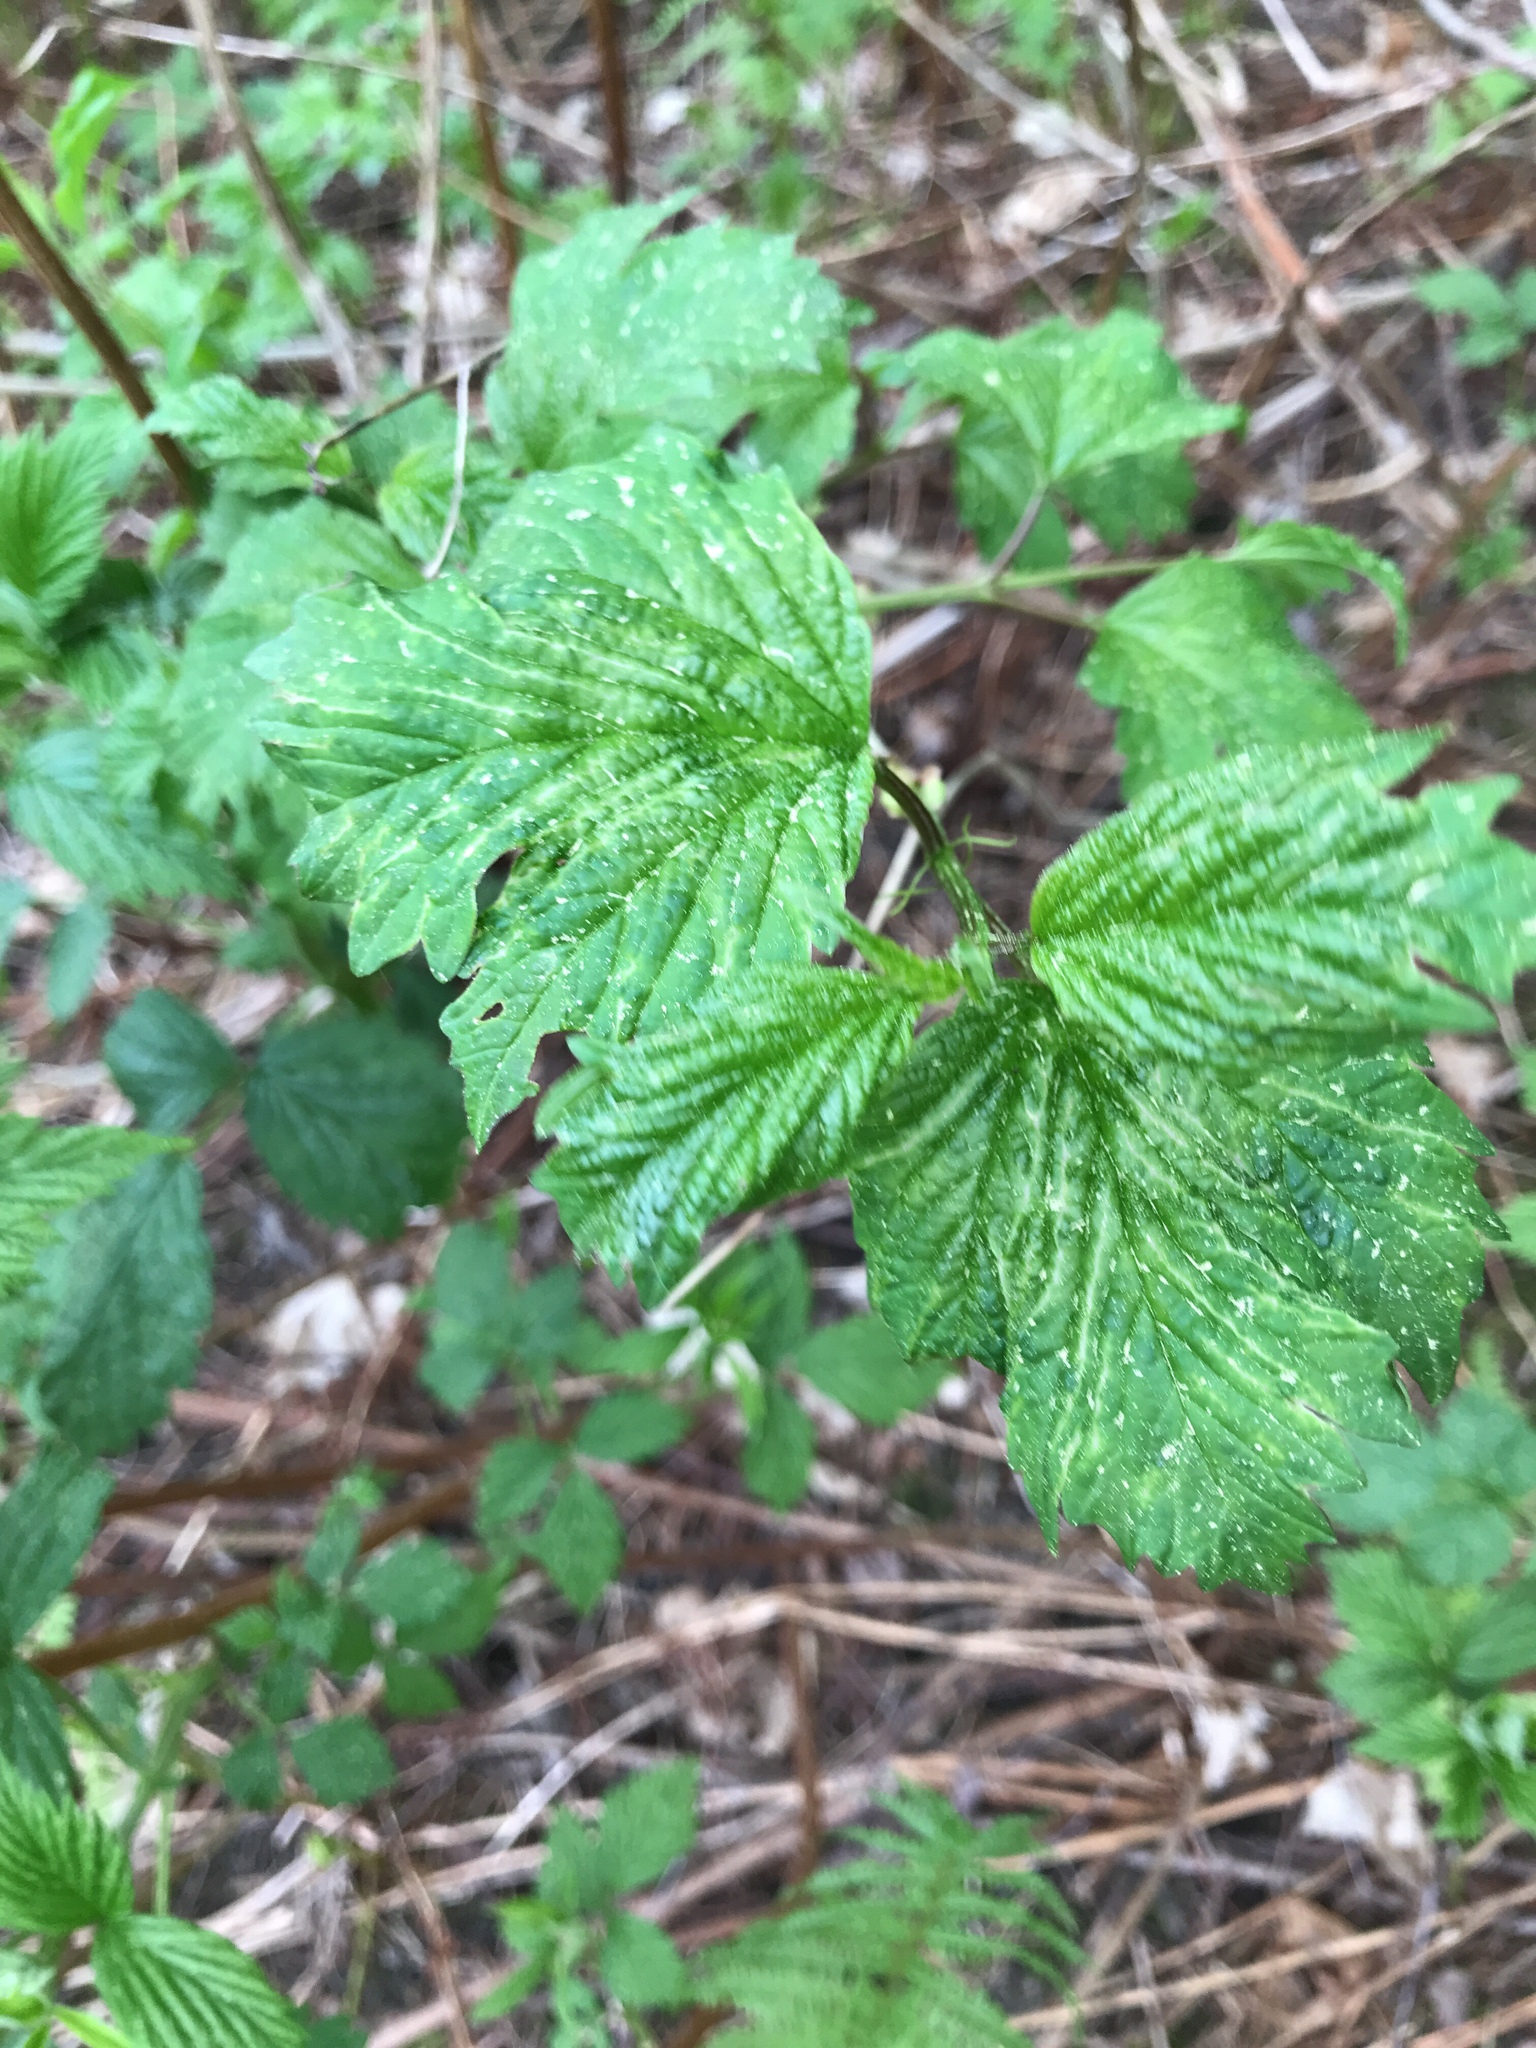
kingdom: Plantae
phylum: Tracheophyta
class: Magnoliopsida
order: Dipsacales
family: Viburnaceae
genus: Viburnum
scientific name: Viburnum opulus
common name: Guelder-rose
